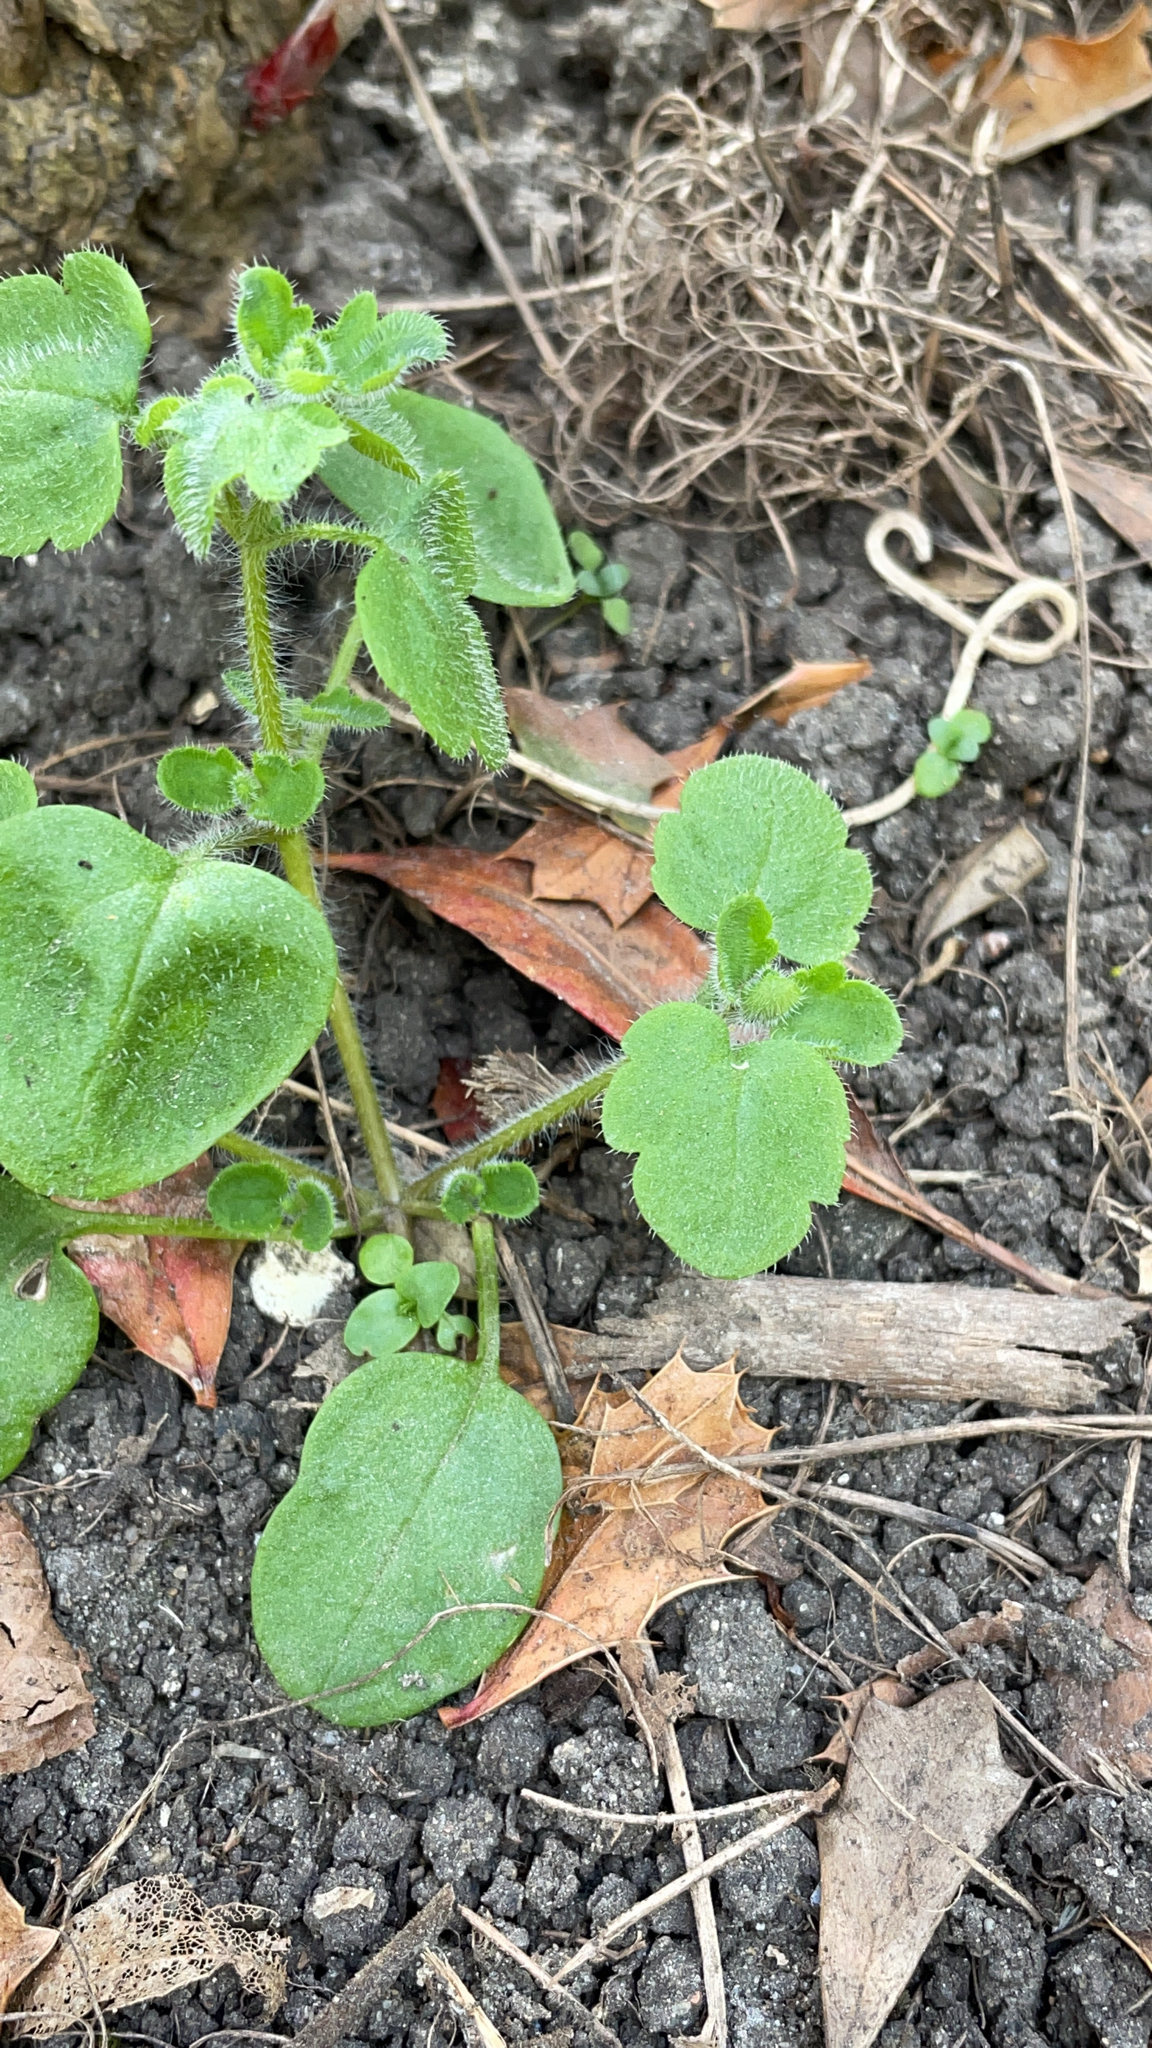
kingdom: Plantae
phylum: Tracheophyta
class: Magnoliopsida
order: Lamiales
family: Plantaginaceae
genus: Veronica
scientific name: Veronica hederifolia
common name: Ivy-leaved speedwell
